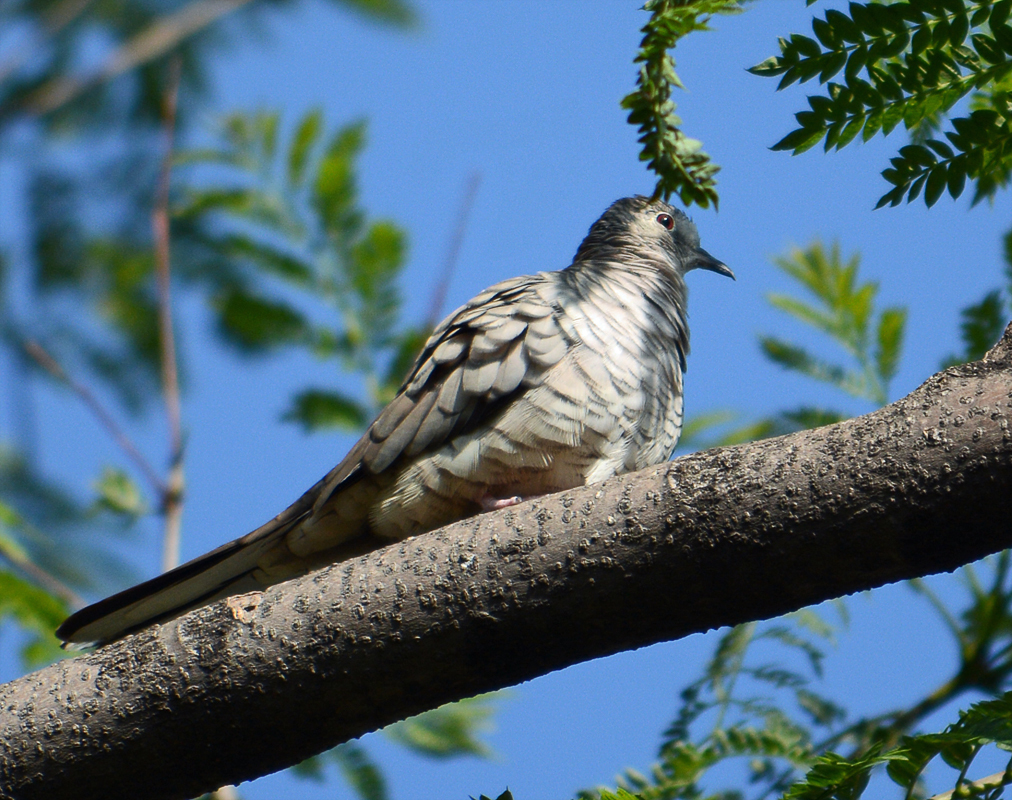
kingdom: Animalia
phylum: Chordata
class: Aves
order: Columbiformes
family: Columbidae
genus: Columbina
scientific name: Columbina inca
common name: Inca dove
